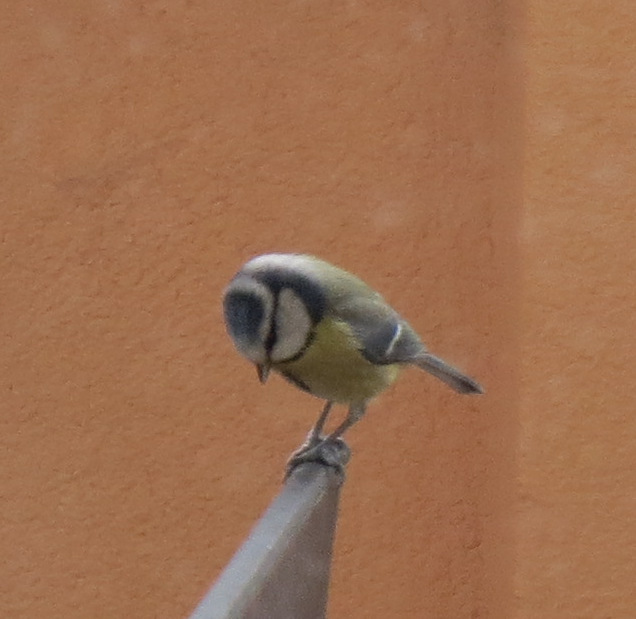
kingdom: Animalia
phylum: Chordata
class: Aves
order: Passeriformes
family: Paridae
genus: Cyanistes
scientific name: Cyanistes caeruleus
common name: Eurasian blue tit
